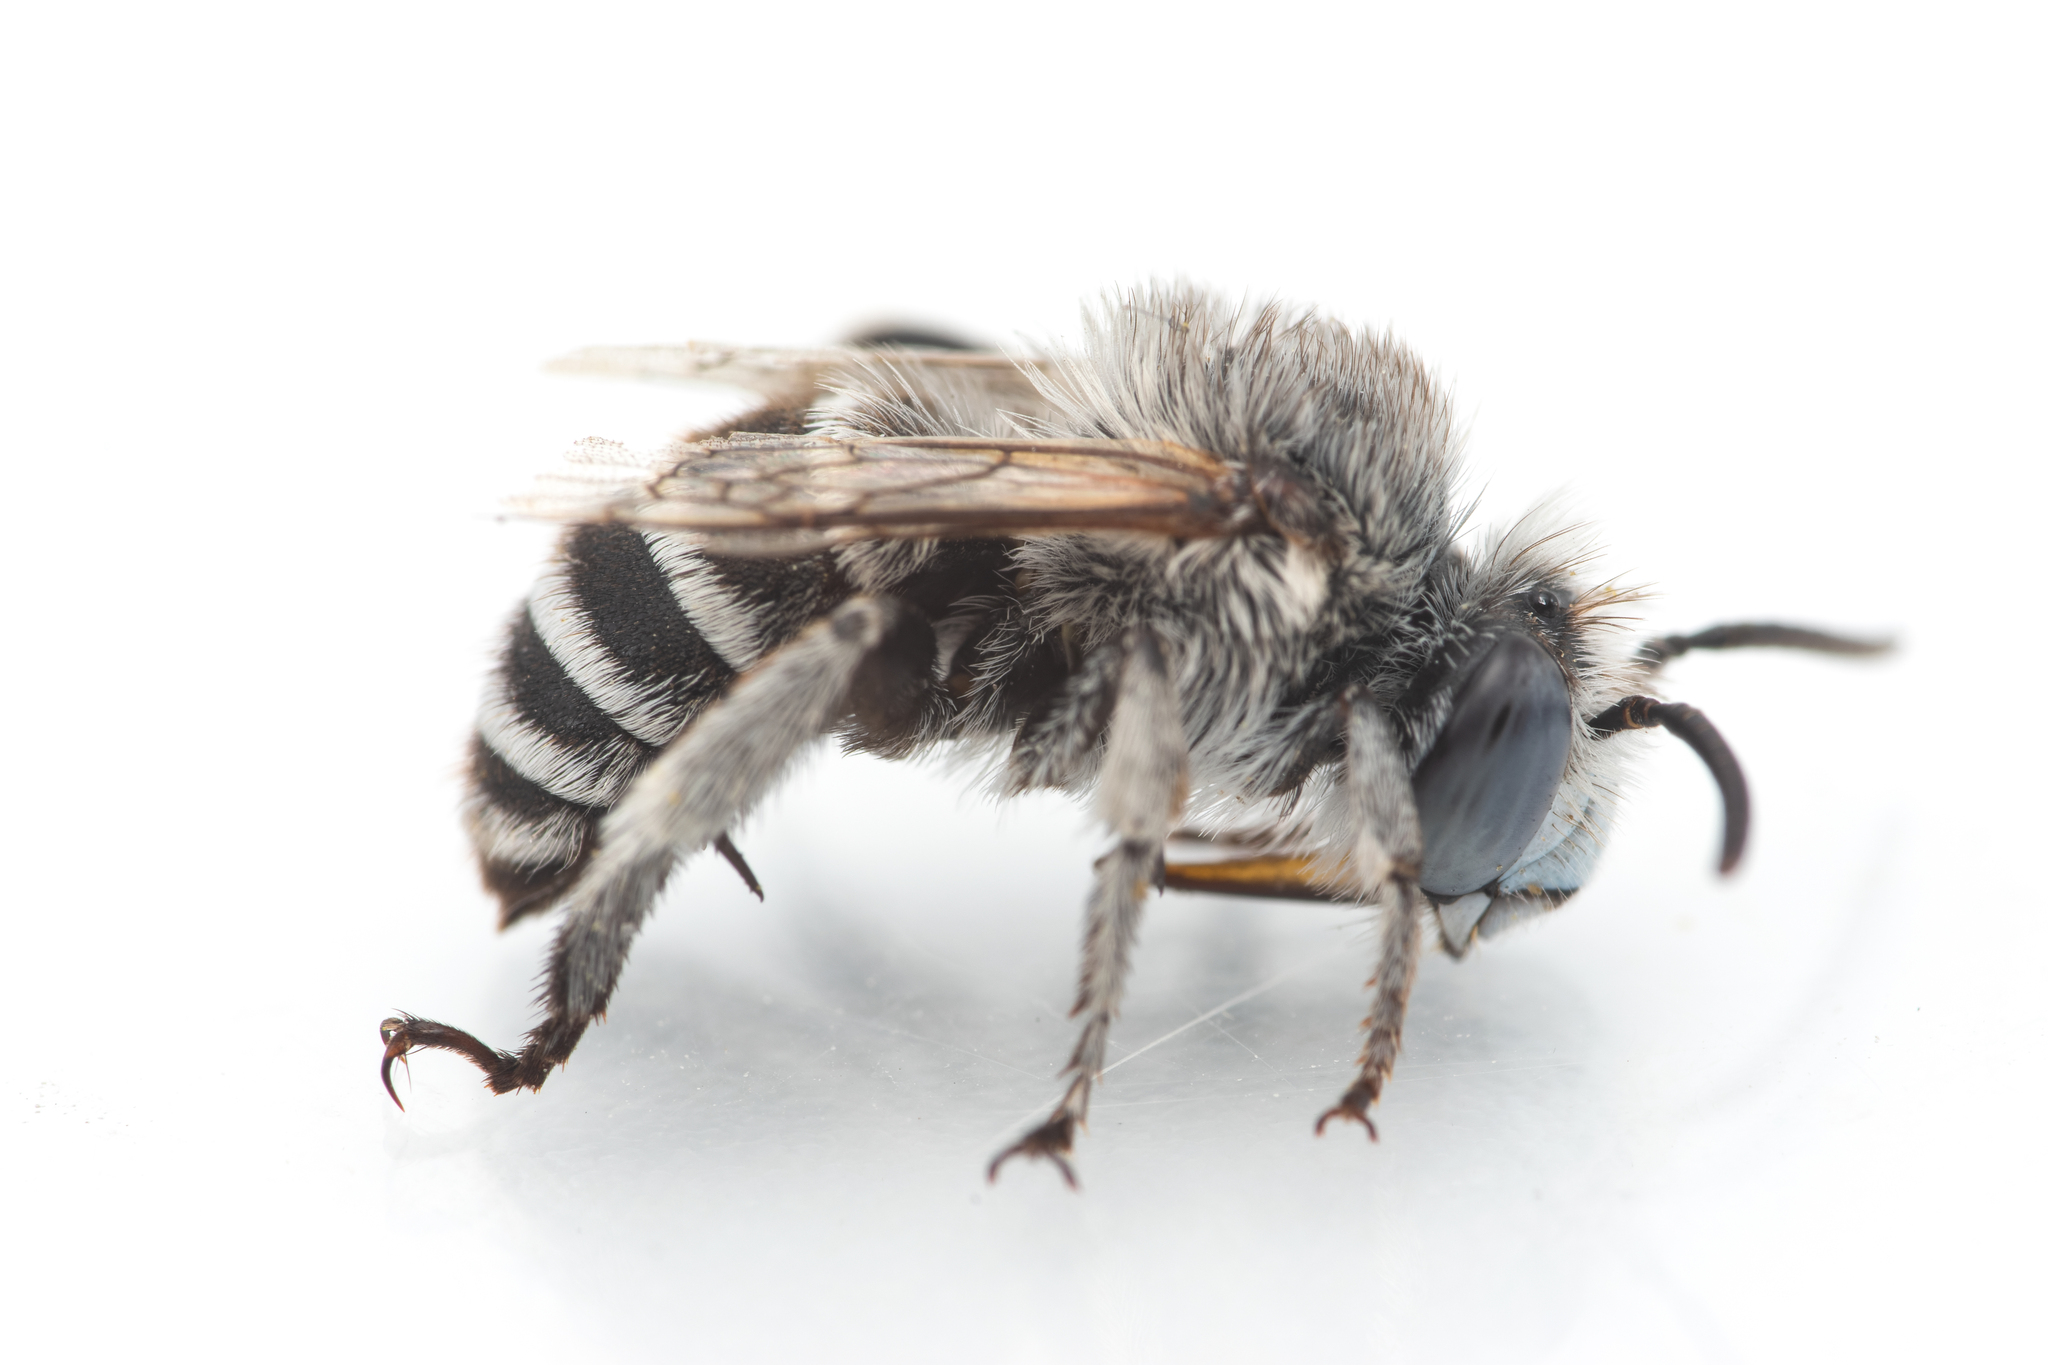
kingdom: Animalia
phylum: Arthropoda
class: Insecta
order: Hymenoptera
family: Apidae
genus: Amegilla
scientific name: Amegilla albigena
